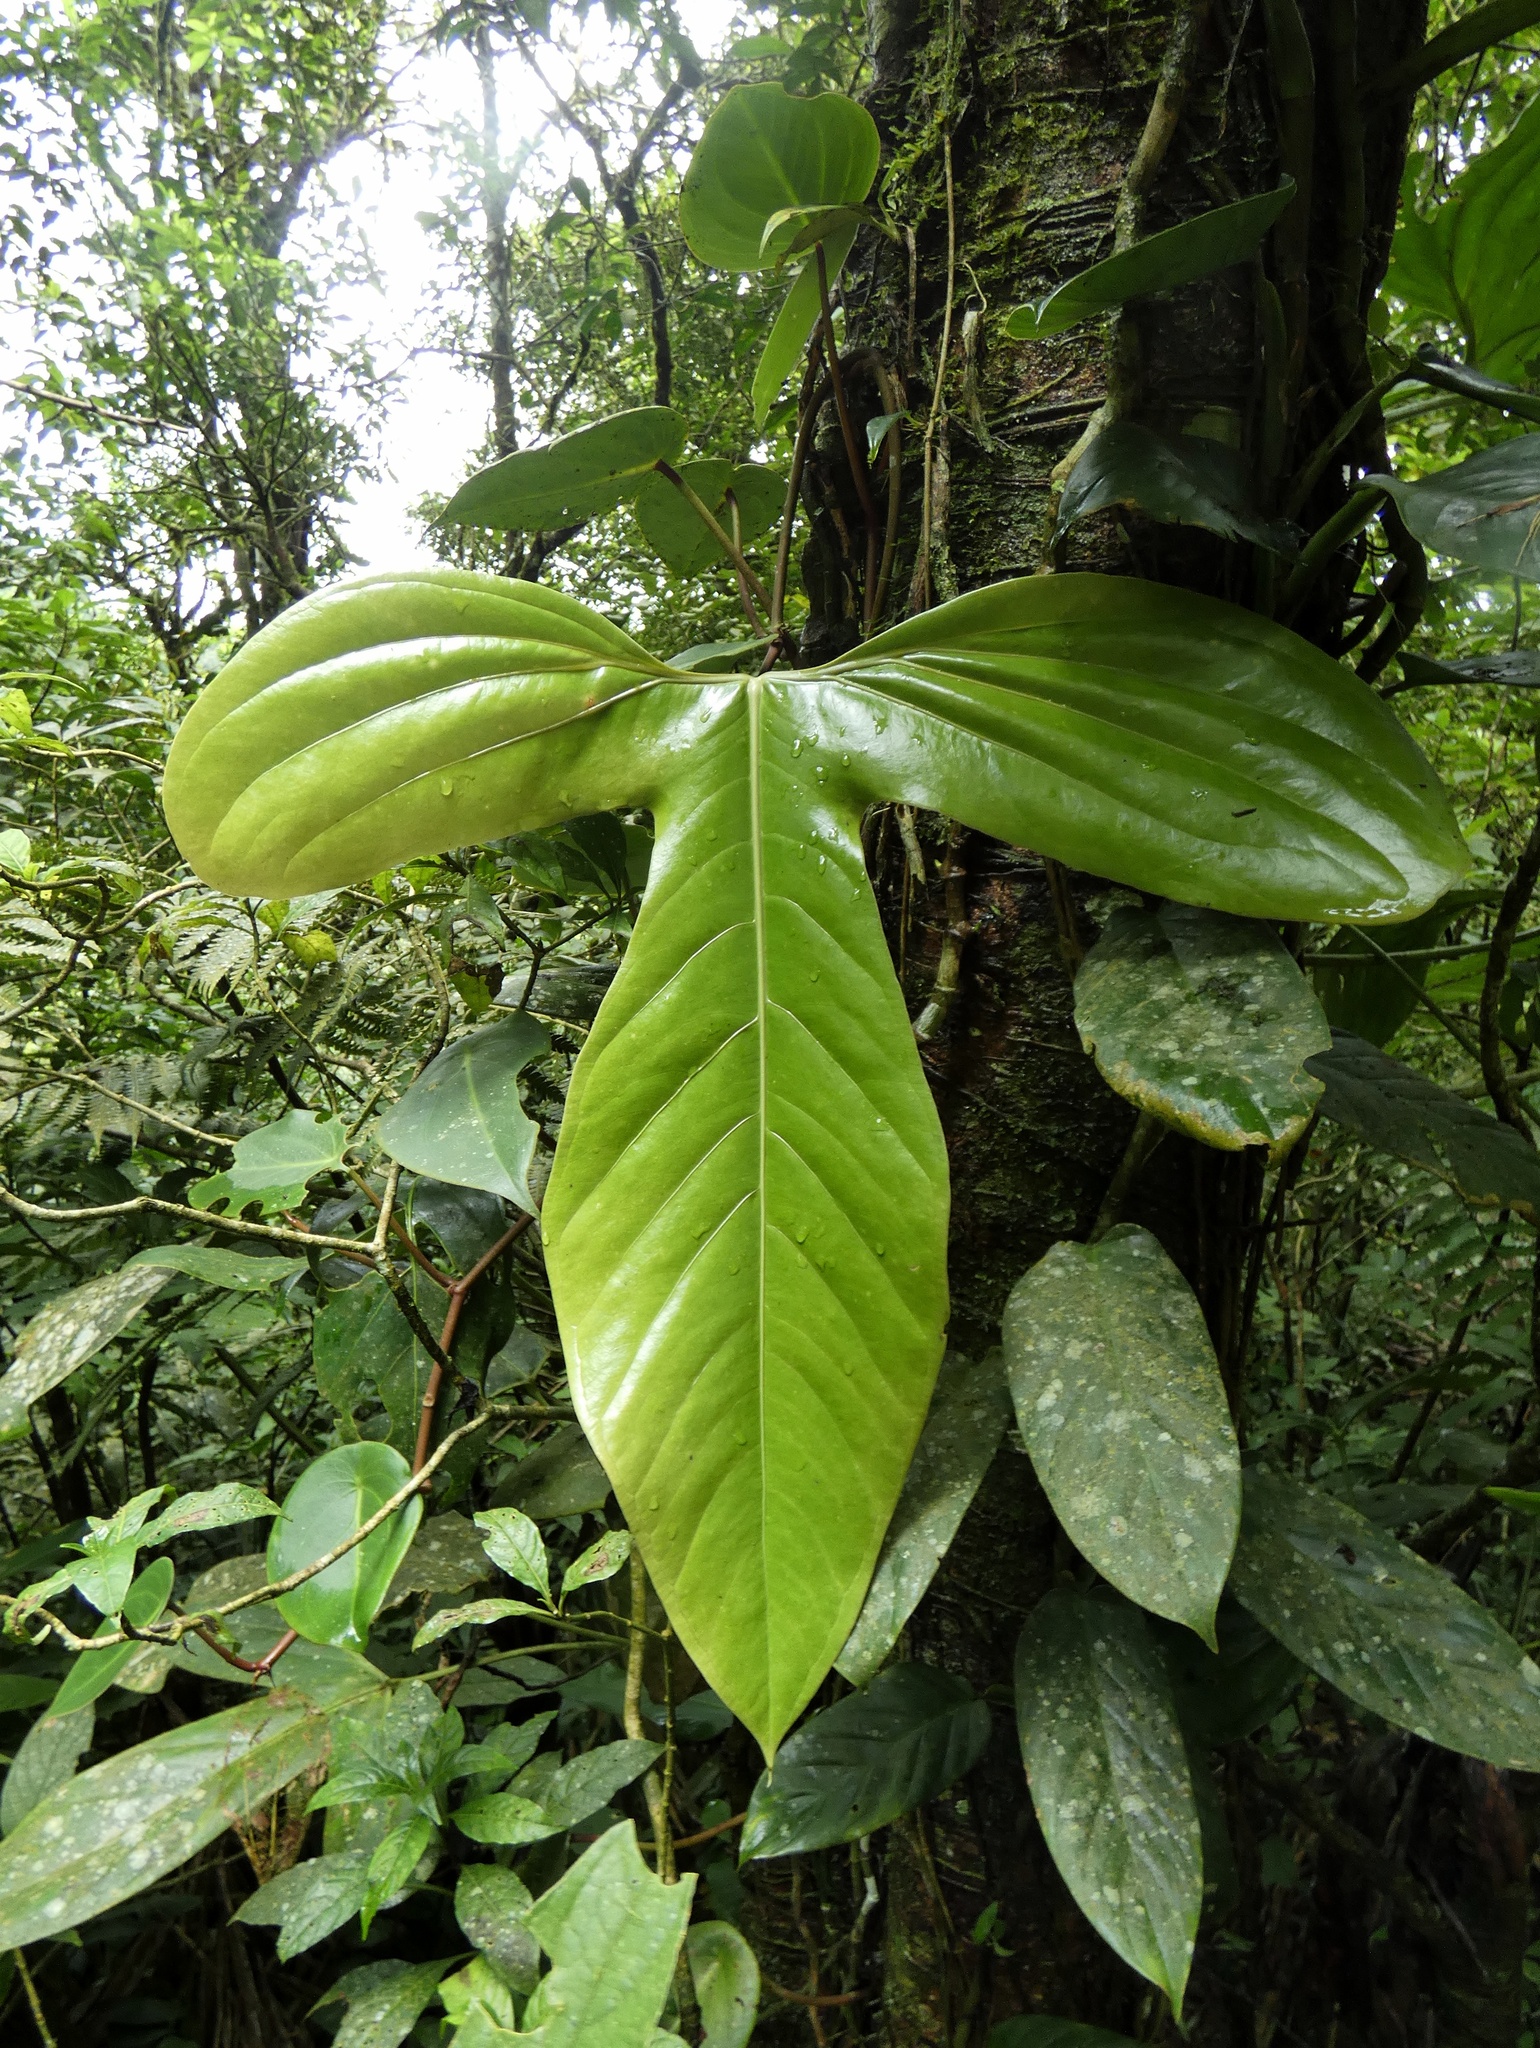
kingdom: Plantae
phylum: Tracheophyta
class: Liliopsida
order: Alismatales
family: Araceae
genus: Anthurium
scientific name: Anthurium rotundatum
